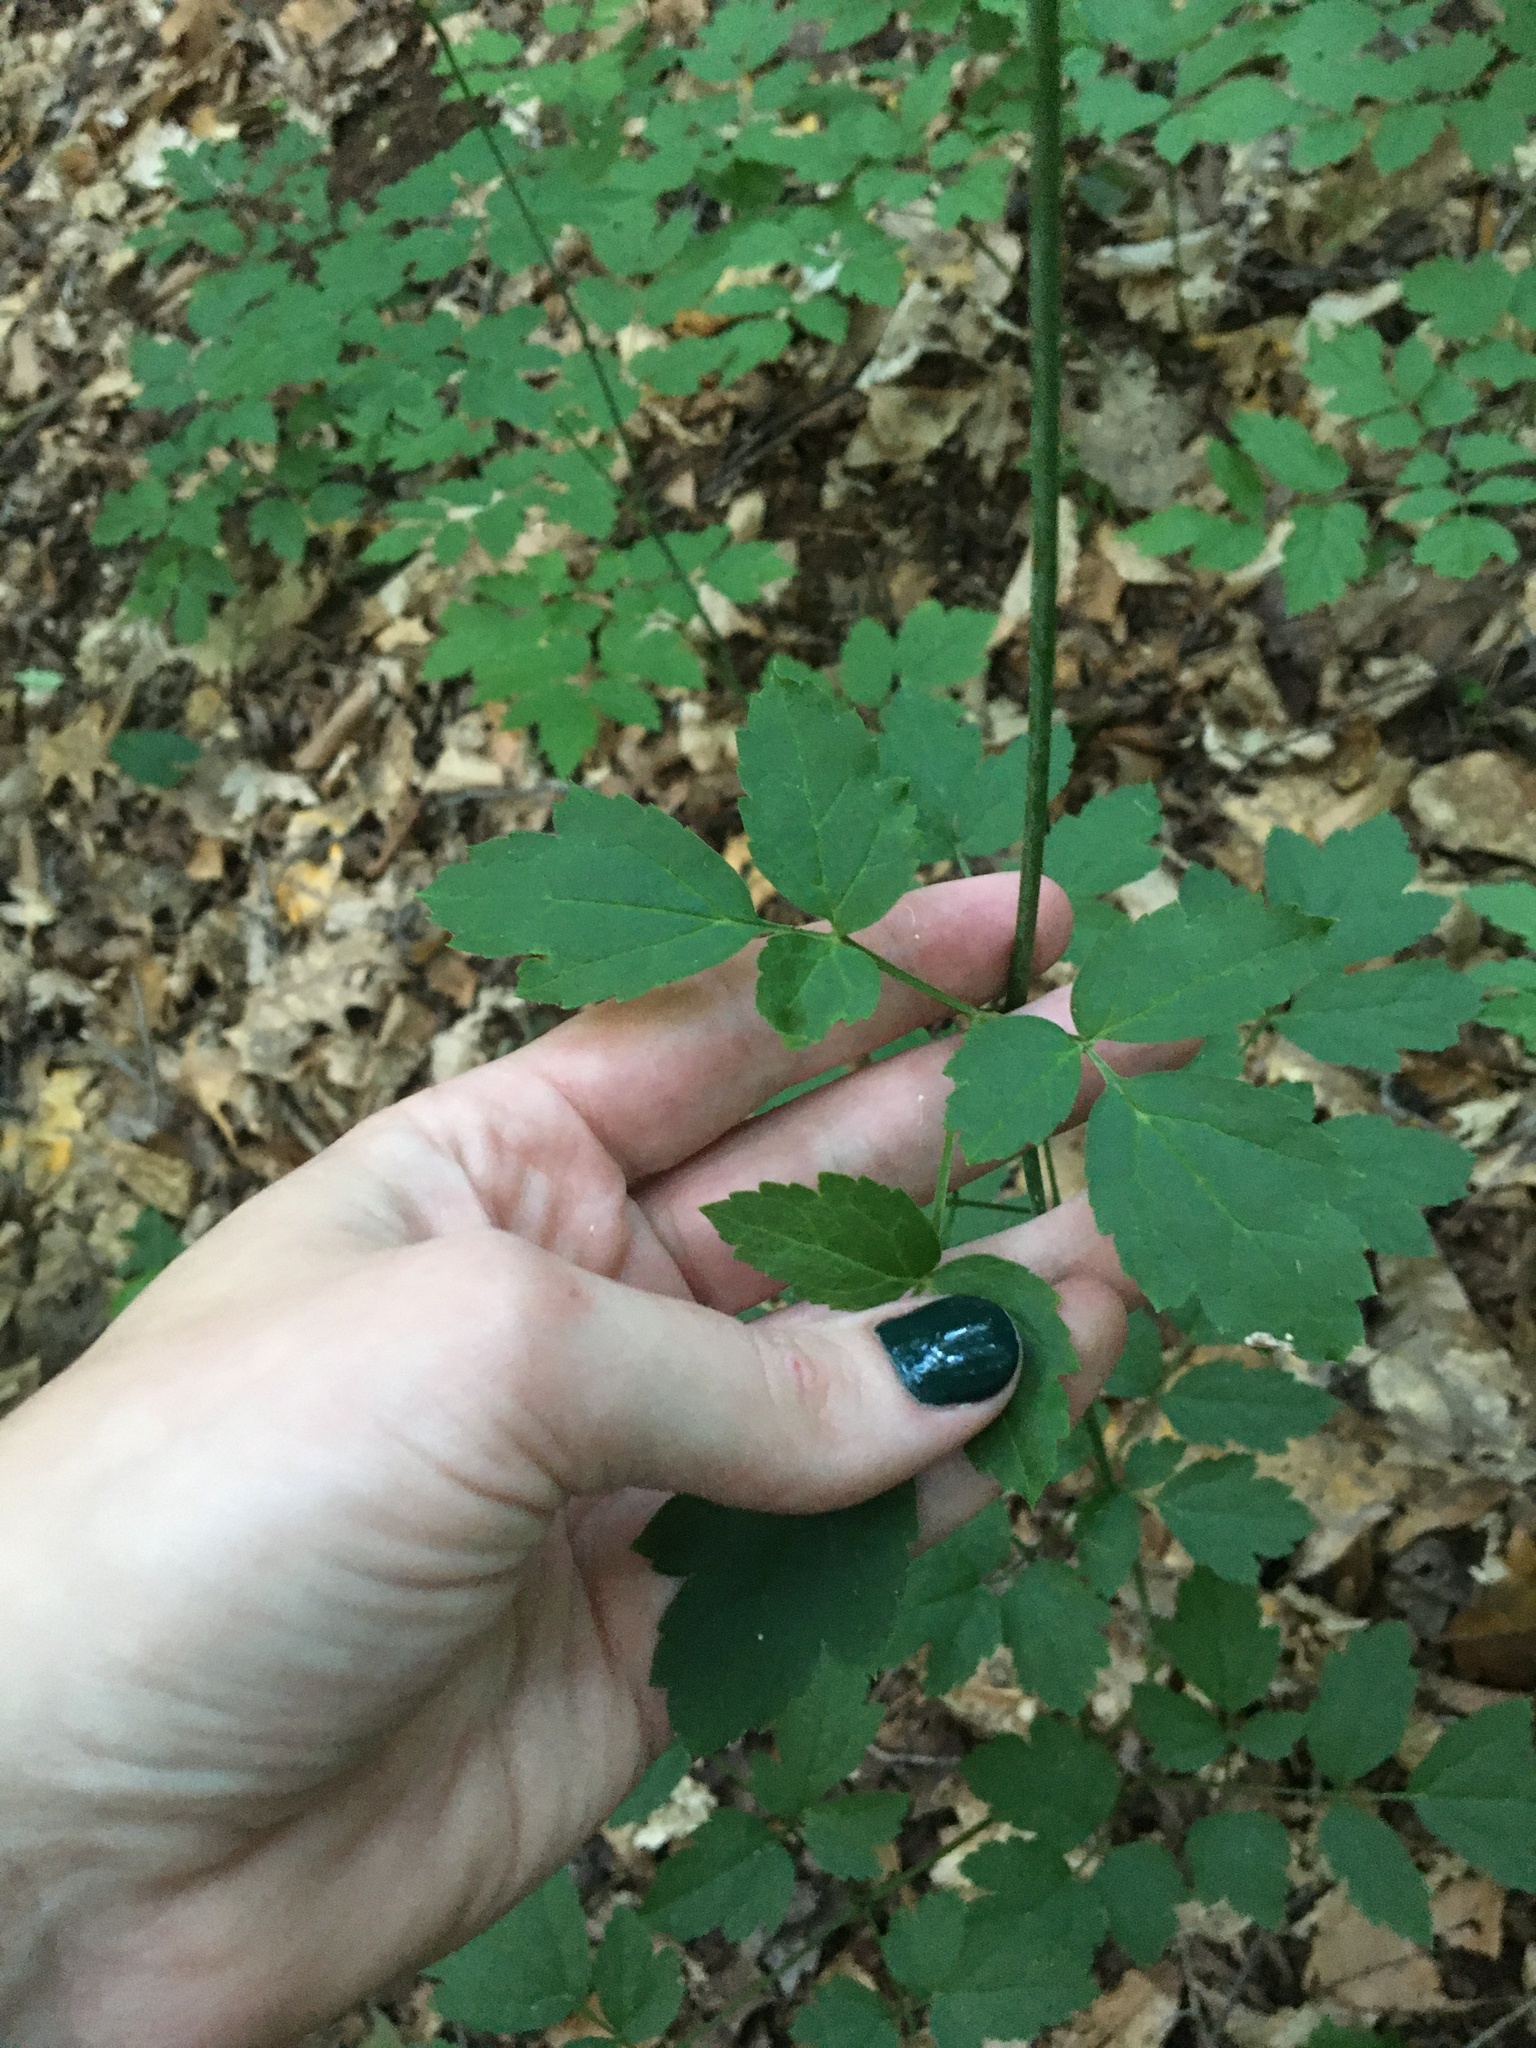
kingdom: Plantae
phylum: Tracheophyta
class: Magnoliopsida
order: Ranunculales
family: Ranunculaceae
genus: Actaea
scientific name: Actaea racemosa
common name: Black cohosh
